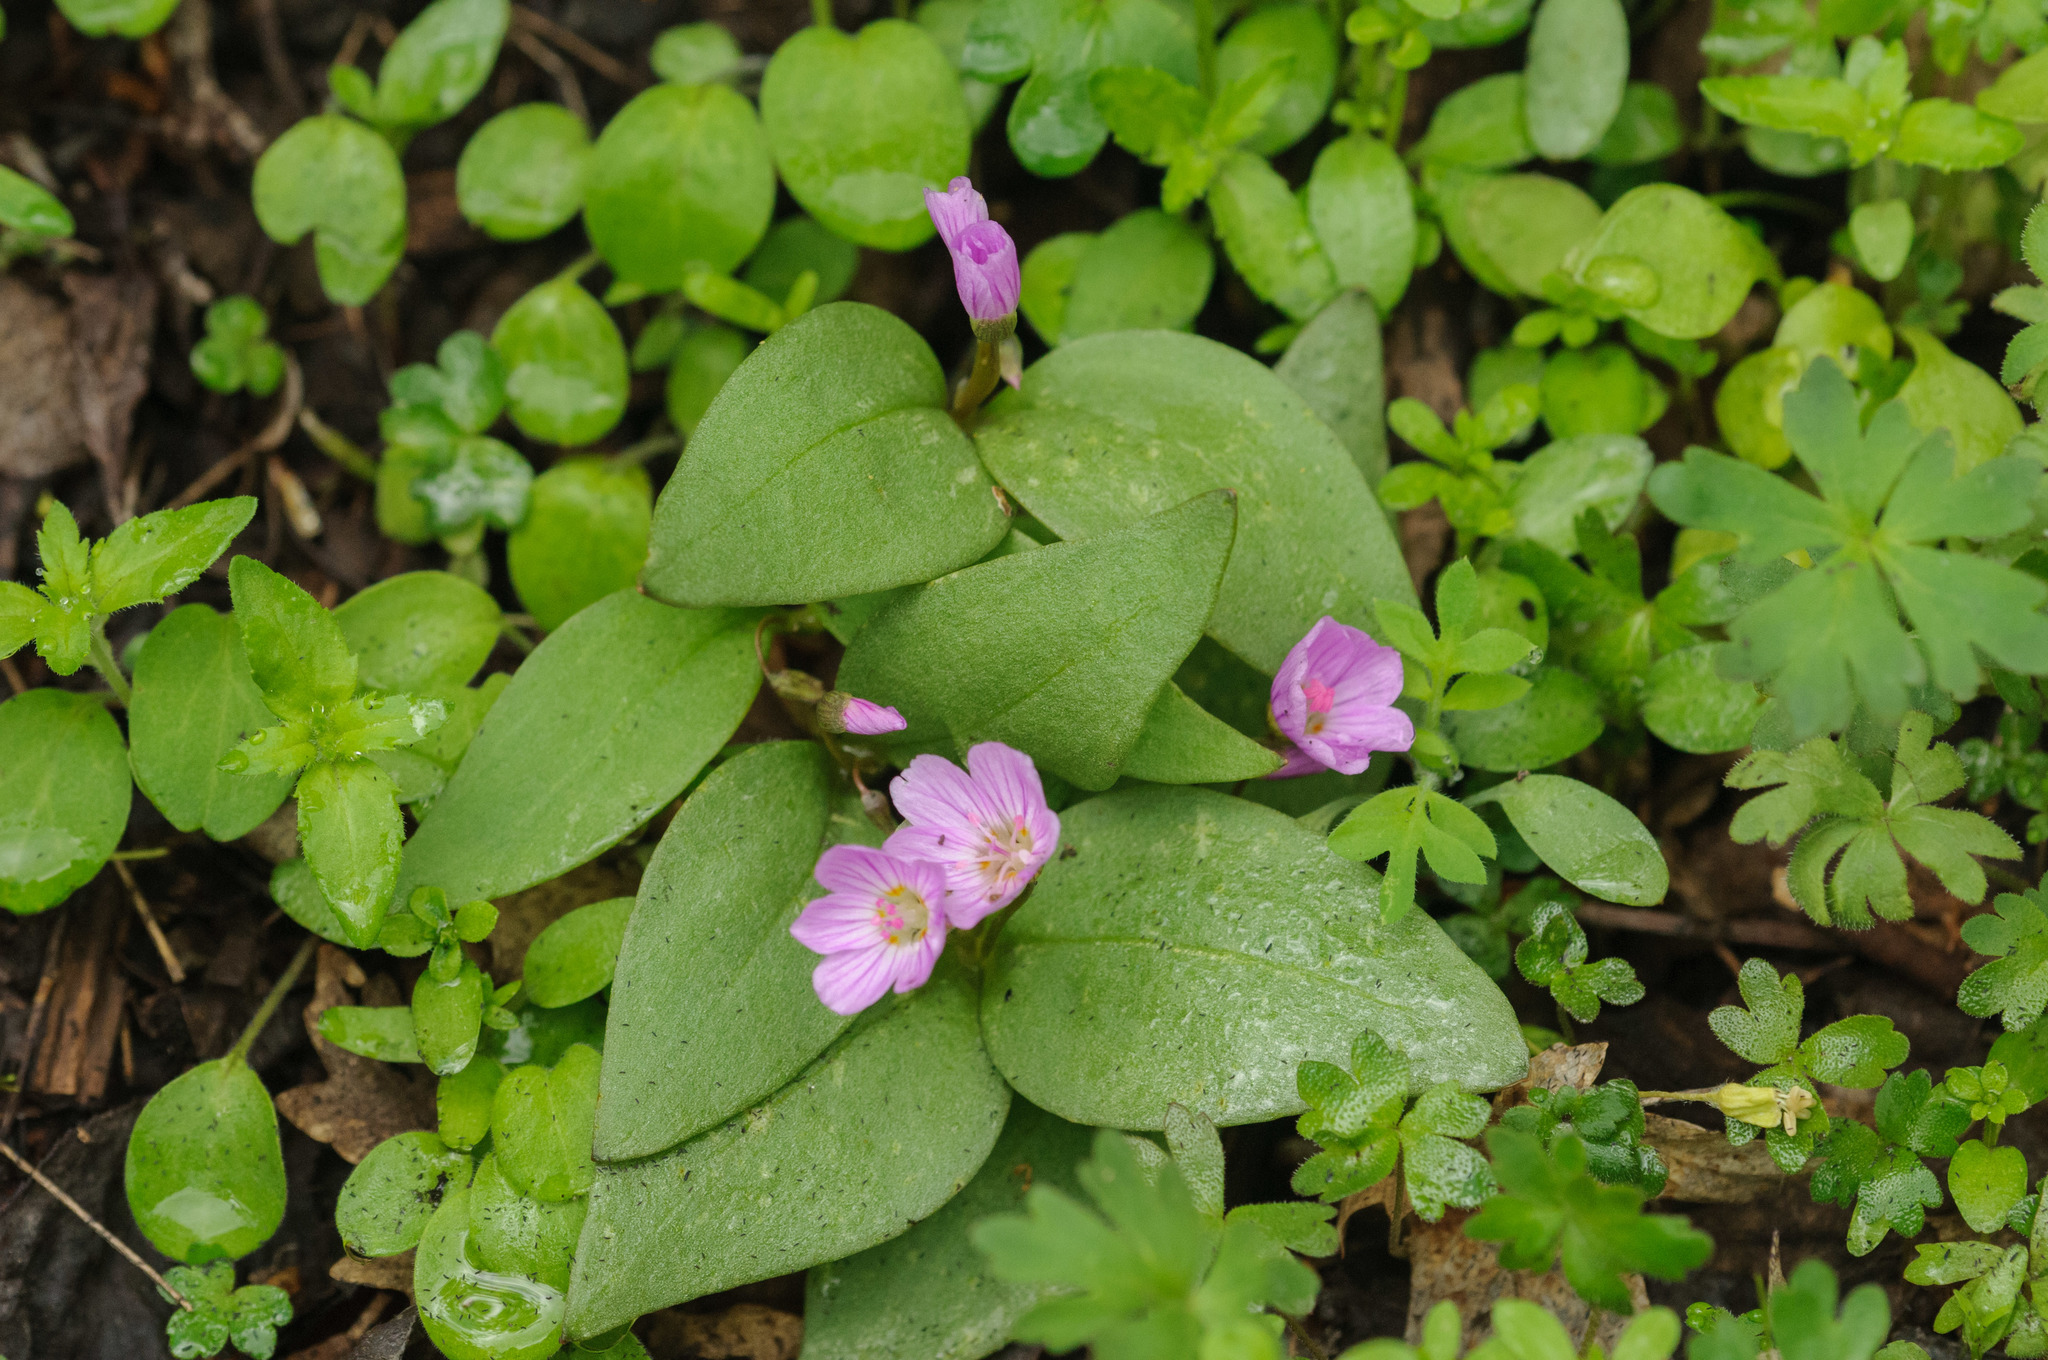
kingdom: Plantae
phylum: Tracheophyta
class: Magnoliopsida
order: Caryophyllales
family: Montiaceae
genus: Claytonia
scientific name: Claytonia lanceolata
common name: Western spring-beauty
